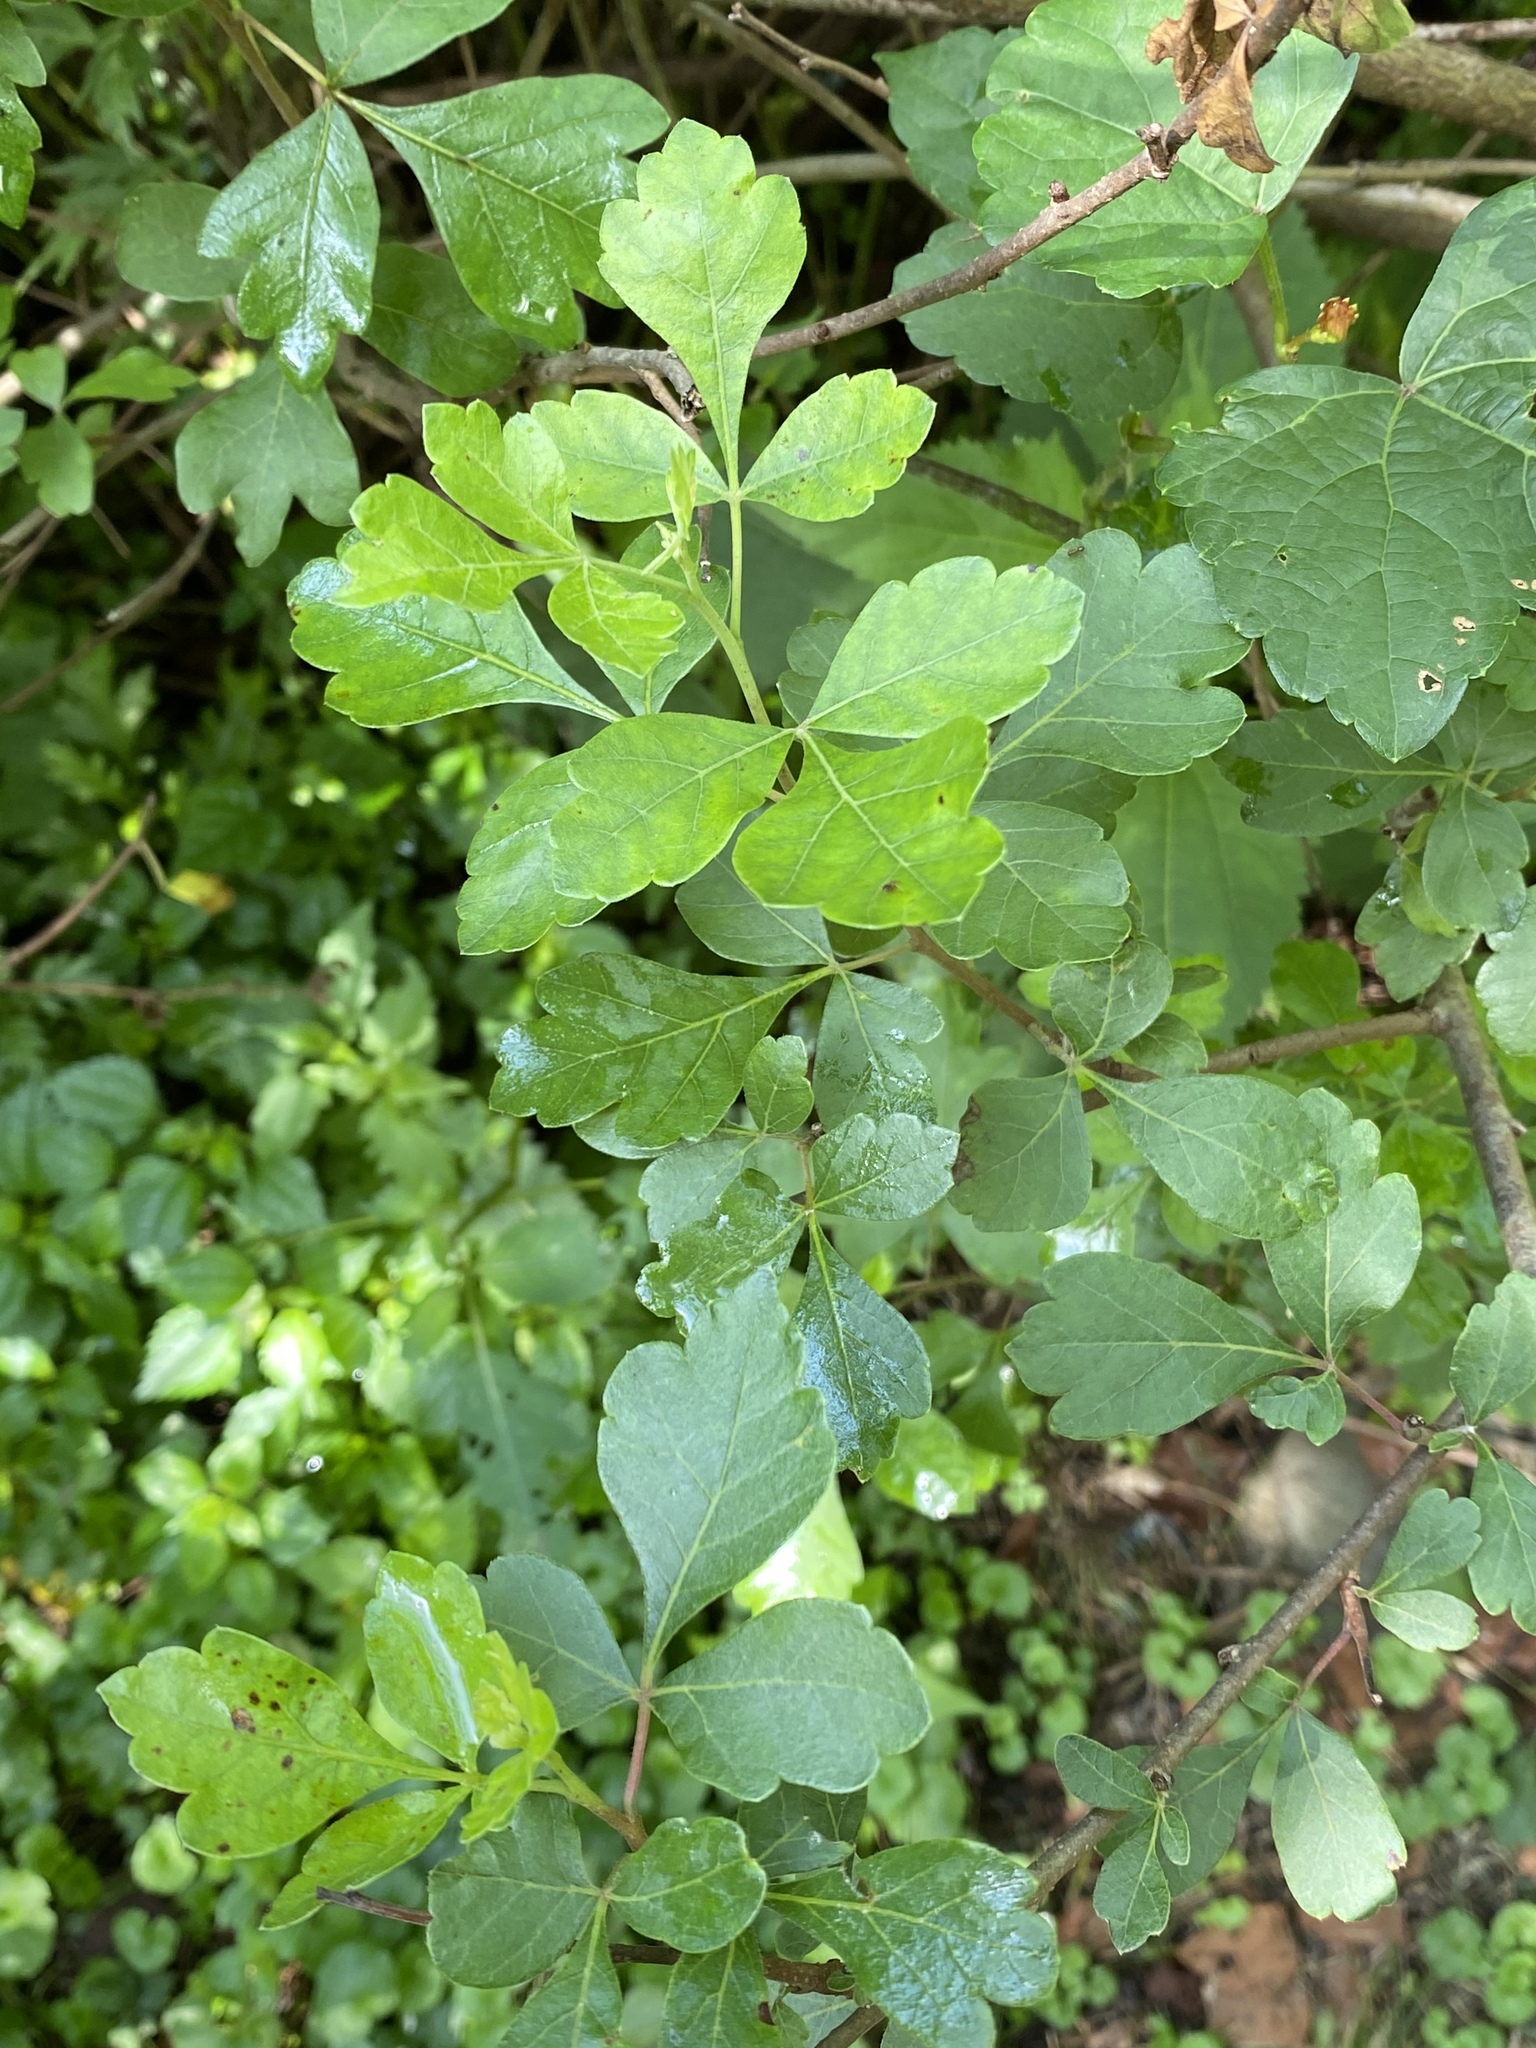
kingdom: Plantae
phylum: Tracheophyta
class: Magnoliopsida
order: Sapindales
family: Anacardiaceae
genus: Rhus
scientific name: Rhus aromatica
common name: Aromatic sumac
